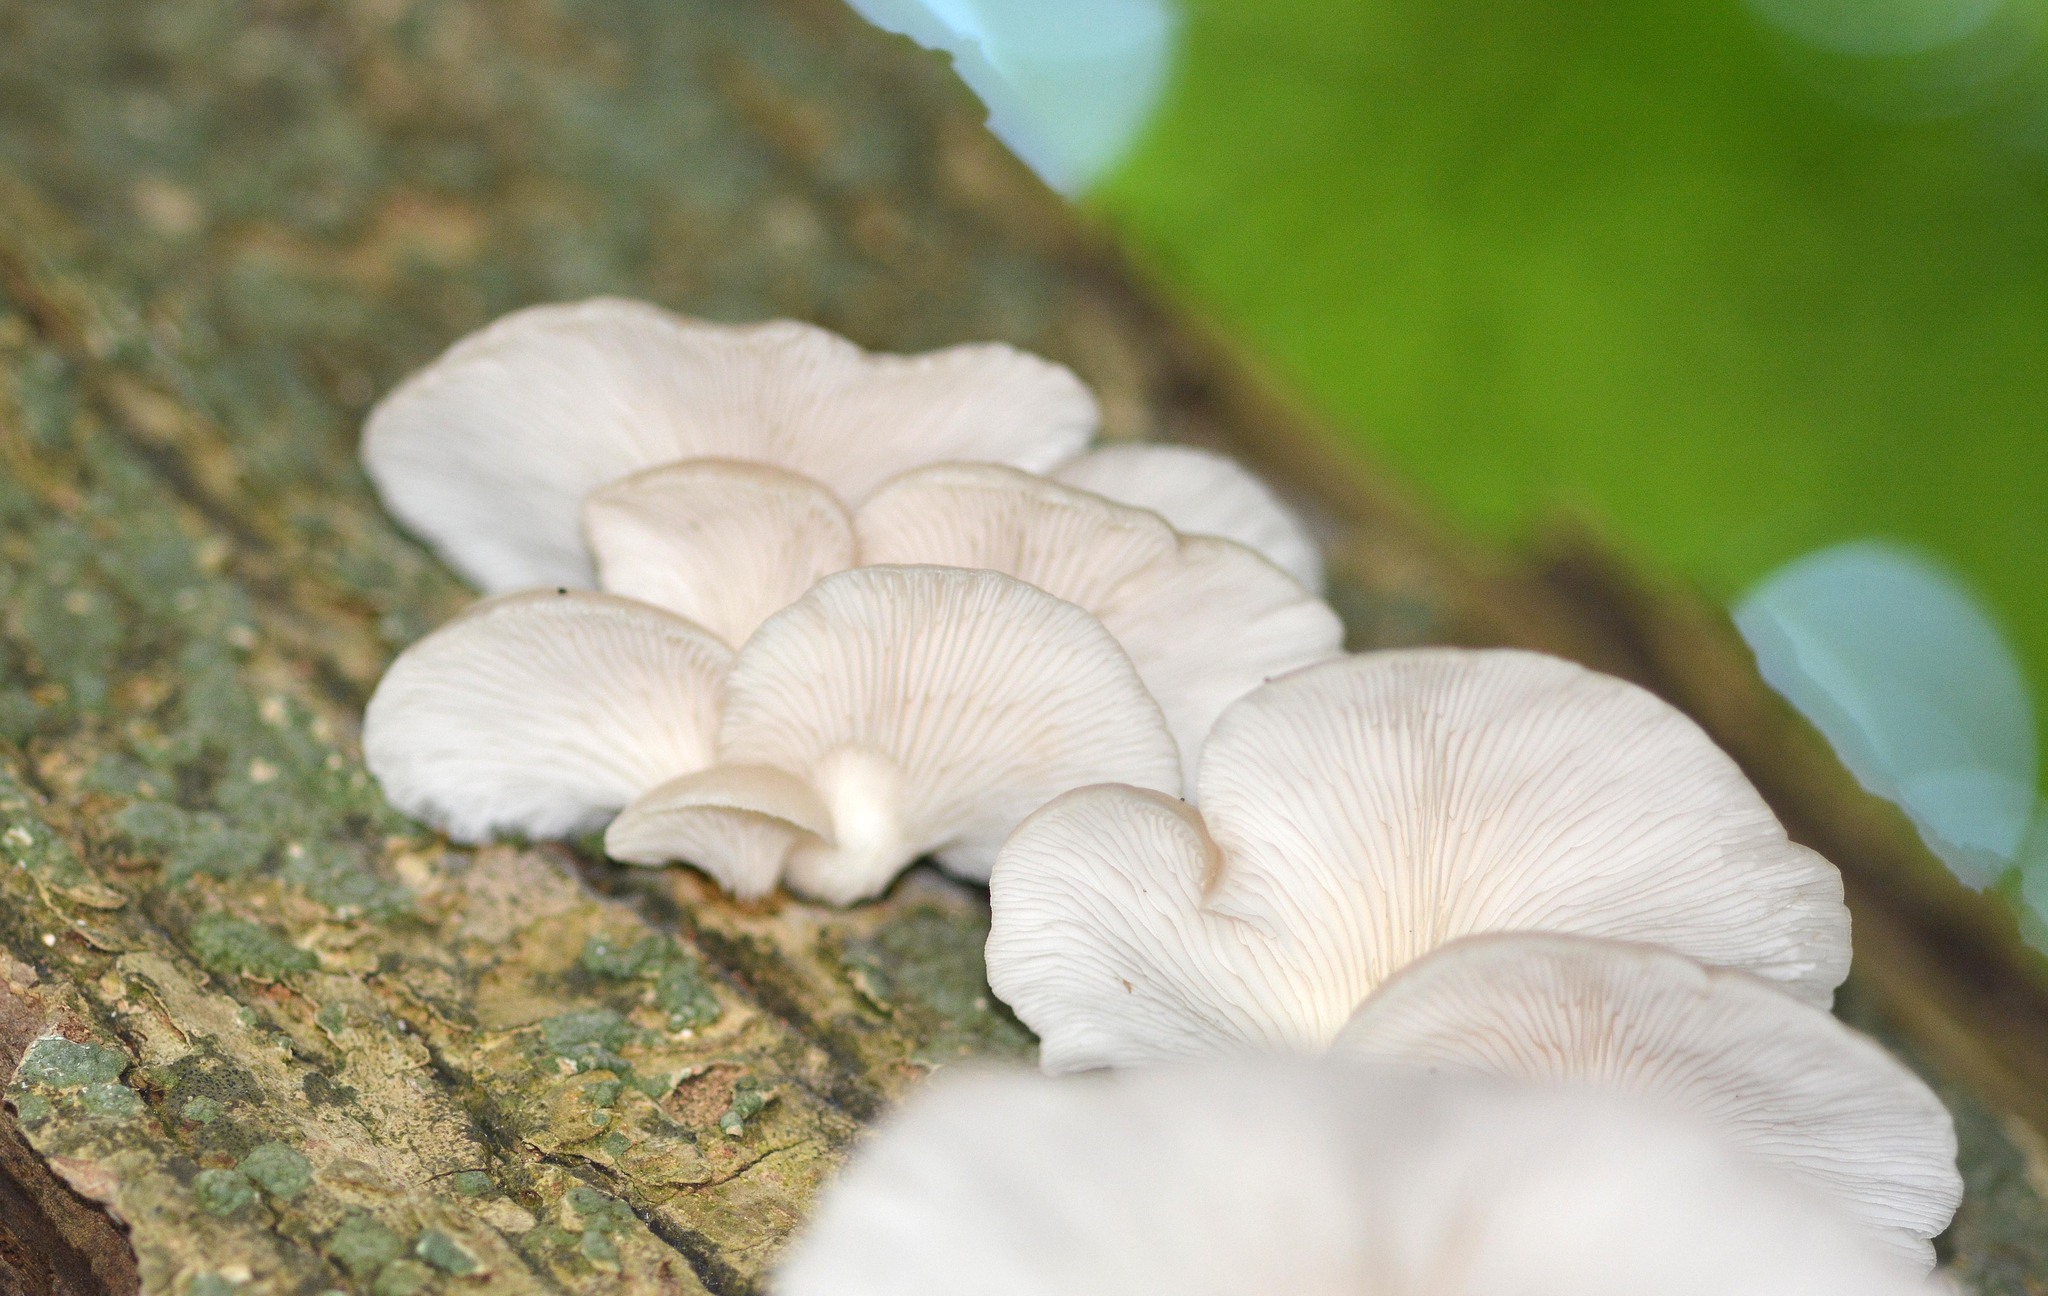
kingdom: Fungi
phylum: Basidiomycota
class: Agaricomycetes
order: Agaricales
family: Pleurotaceae
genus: Pleurotus
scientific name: Pleurotus ostreatus
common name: Oyster mushroom
